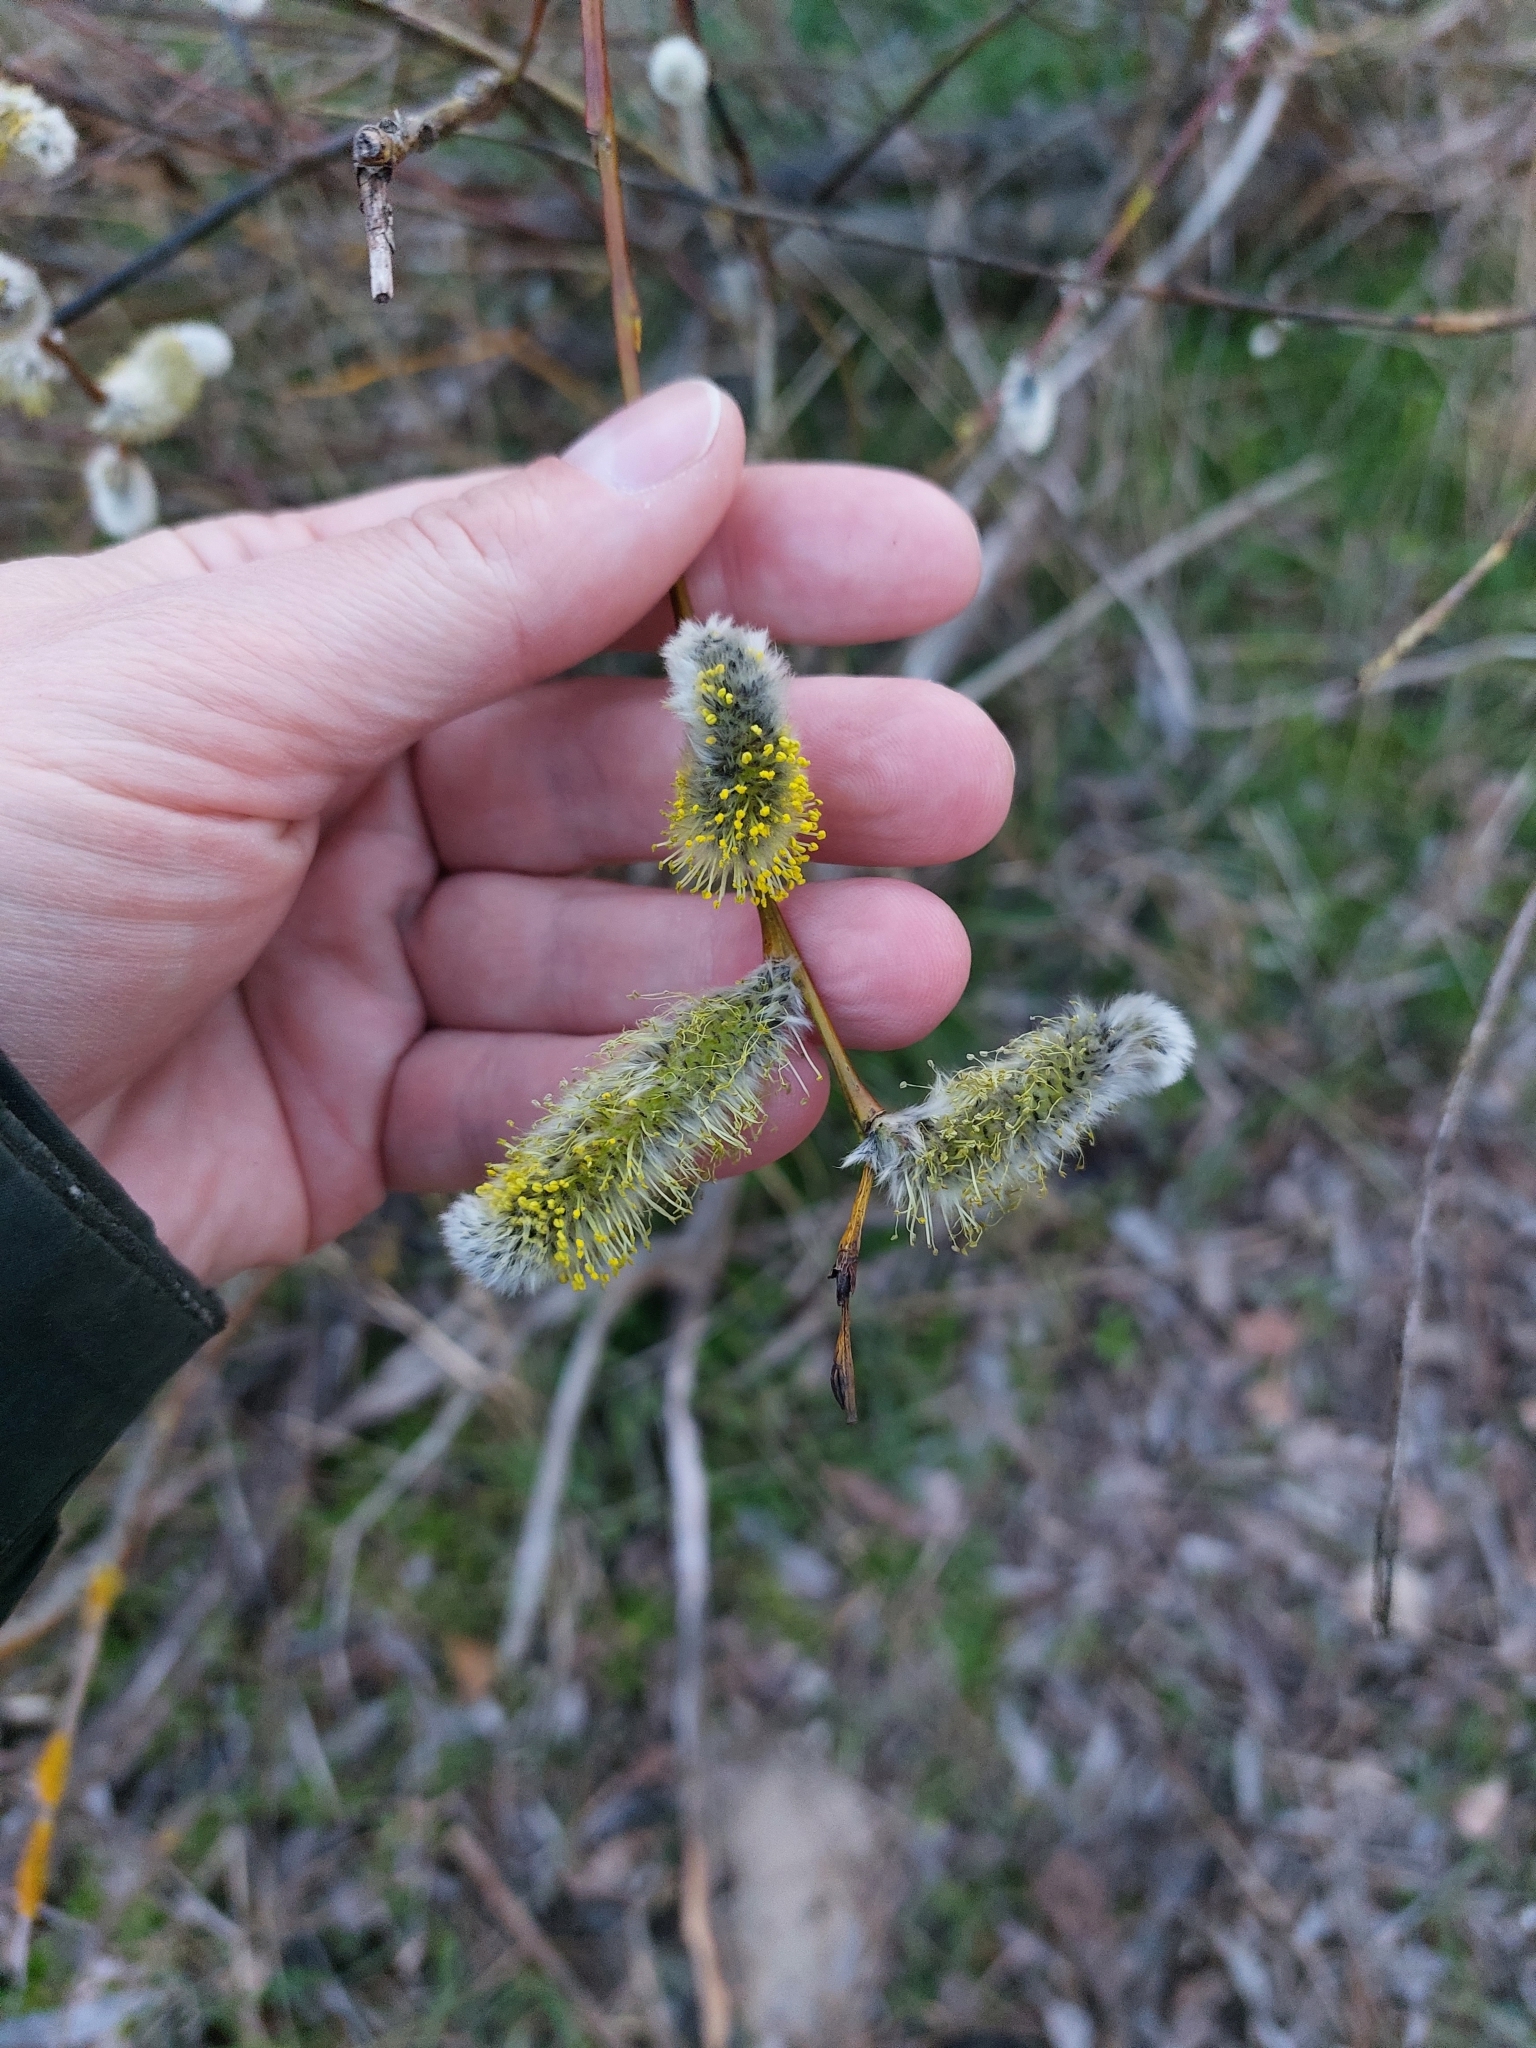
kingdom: Plantae
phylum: Tracheophyta
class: Magnoliopsida
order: Malpighiales
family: Salicaceae
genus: Salix
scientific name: Salix acutifolia
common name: Siberian violet-willow
